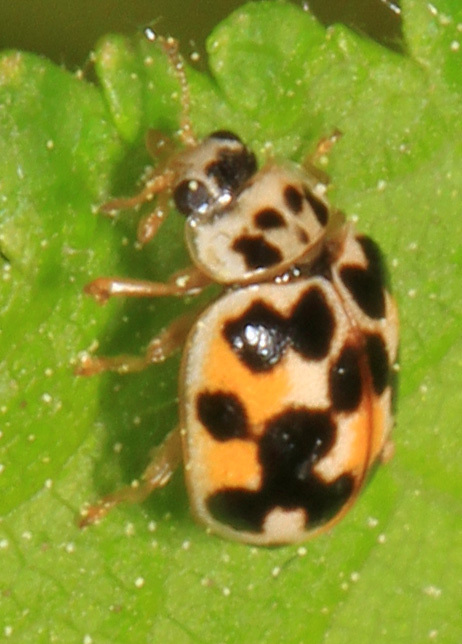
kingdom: Animalia
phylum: Arthropoda
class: Insecta
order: Coleoptera
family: Coccinellidae
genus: Psyllobora
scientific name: Psyllobora vigintimaculata
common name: Ladybird beetle
